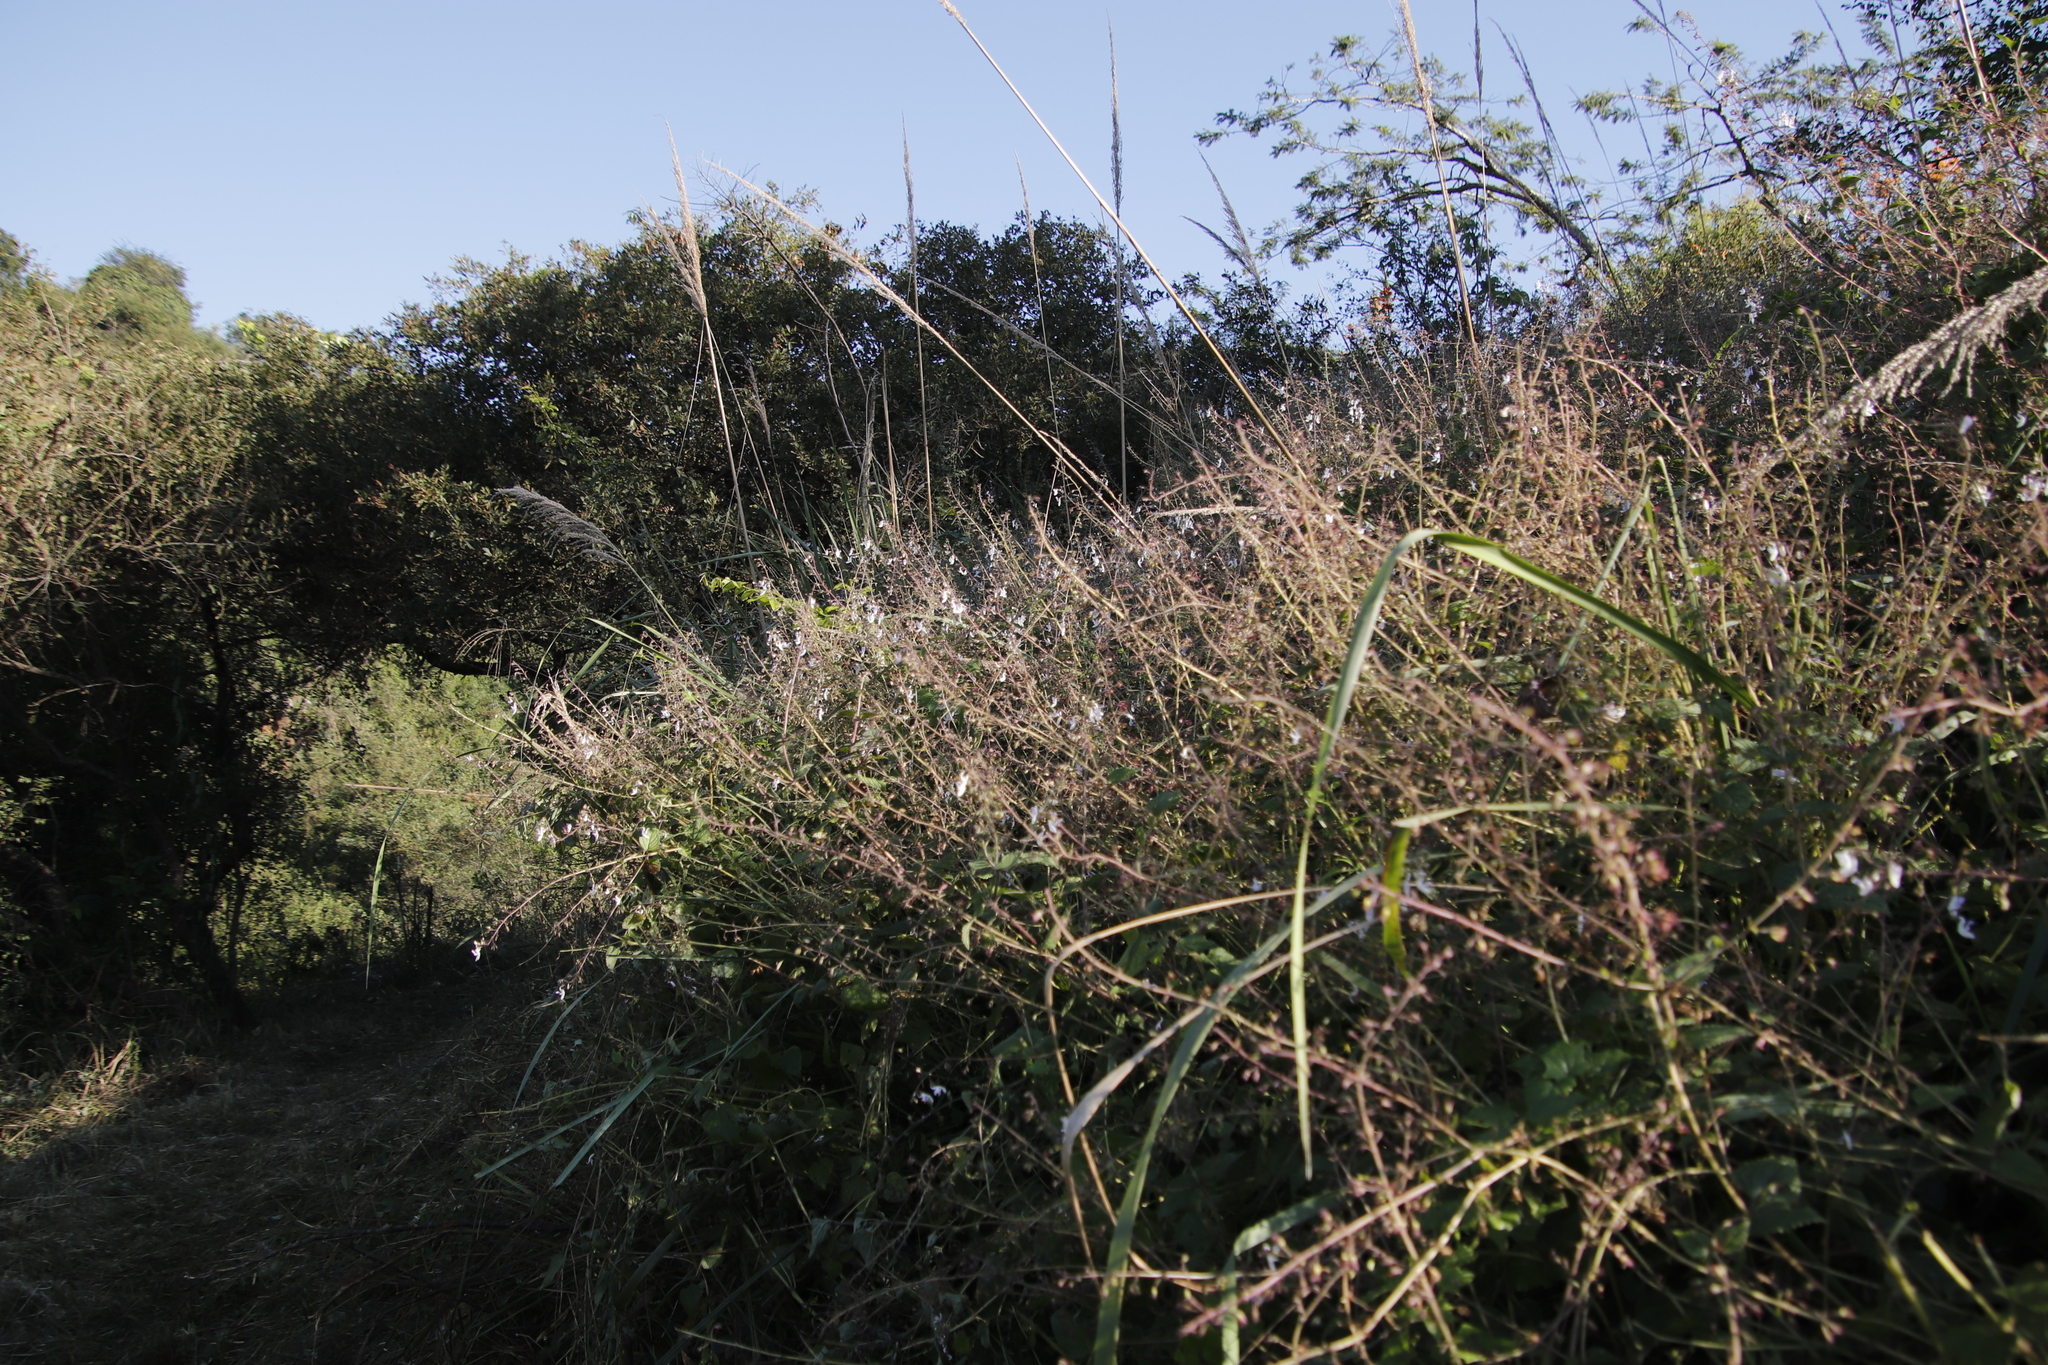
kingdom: Plantae
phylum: Tracheophyta
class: Magnoliopsida
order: Lamiales
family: Lamiaceae
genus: Equilabium
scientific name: Equilabium laxiflorum
